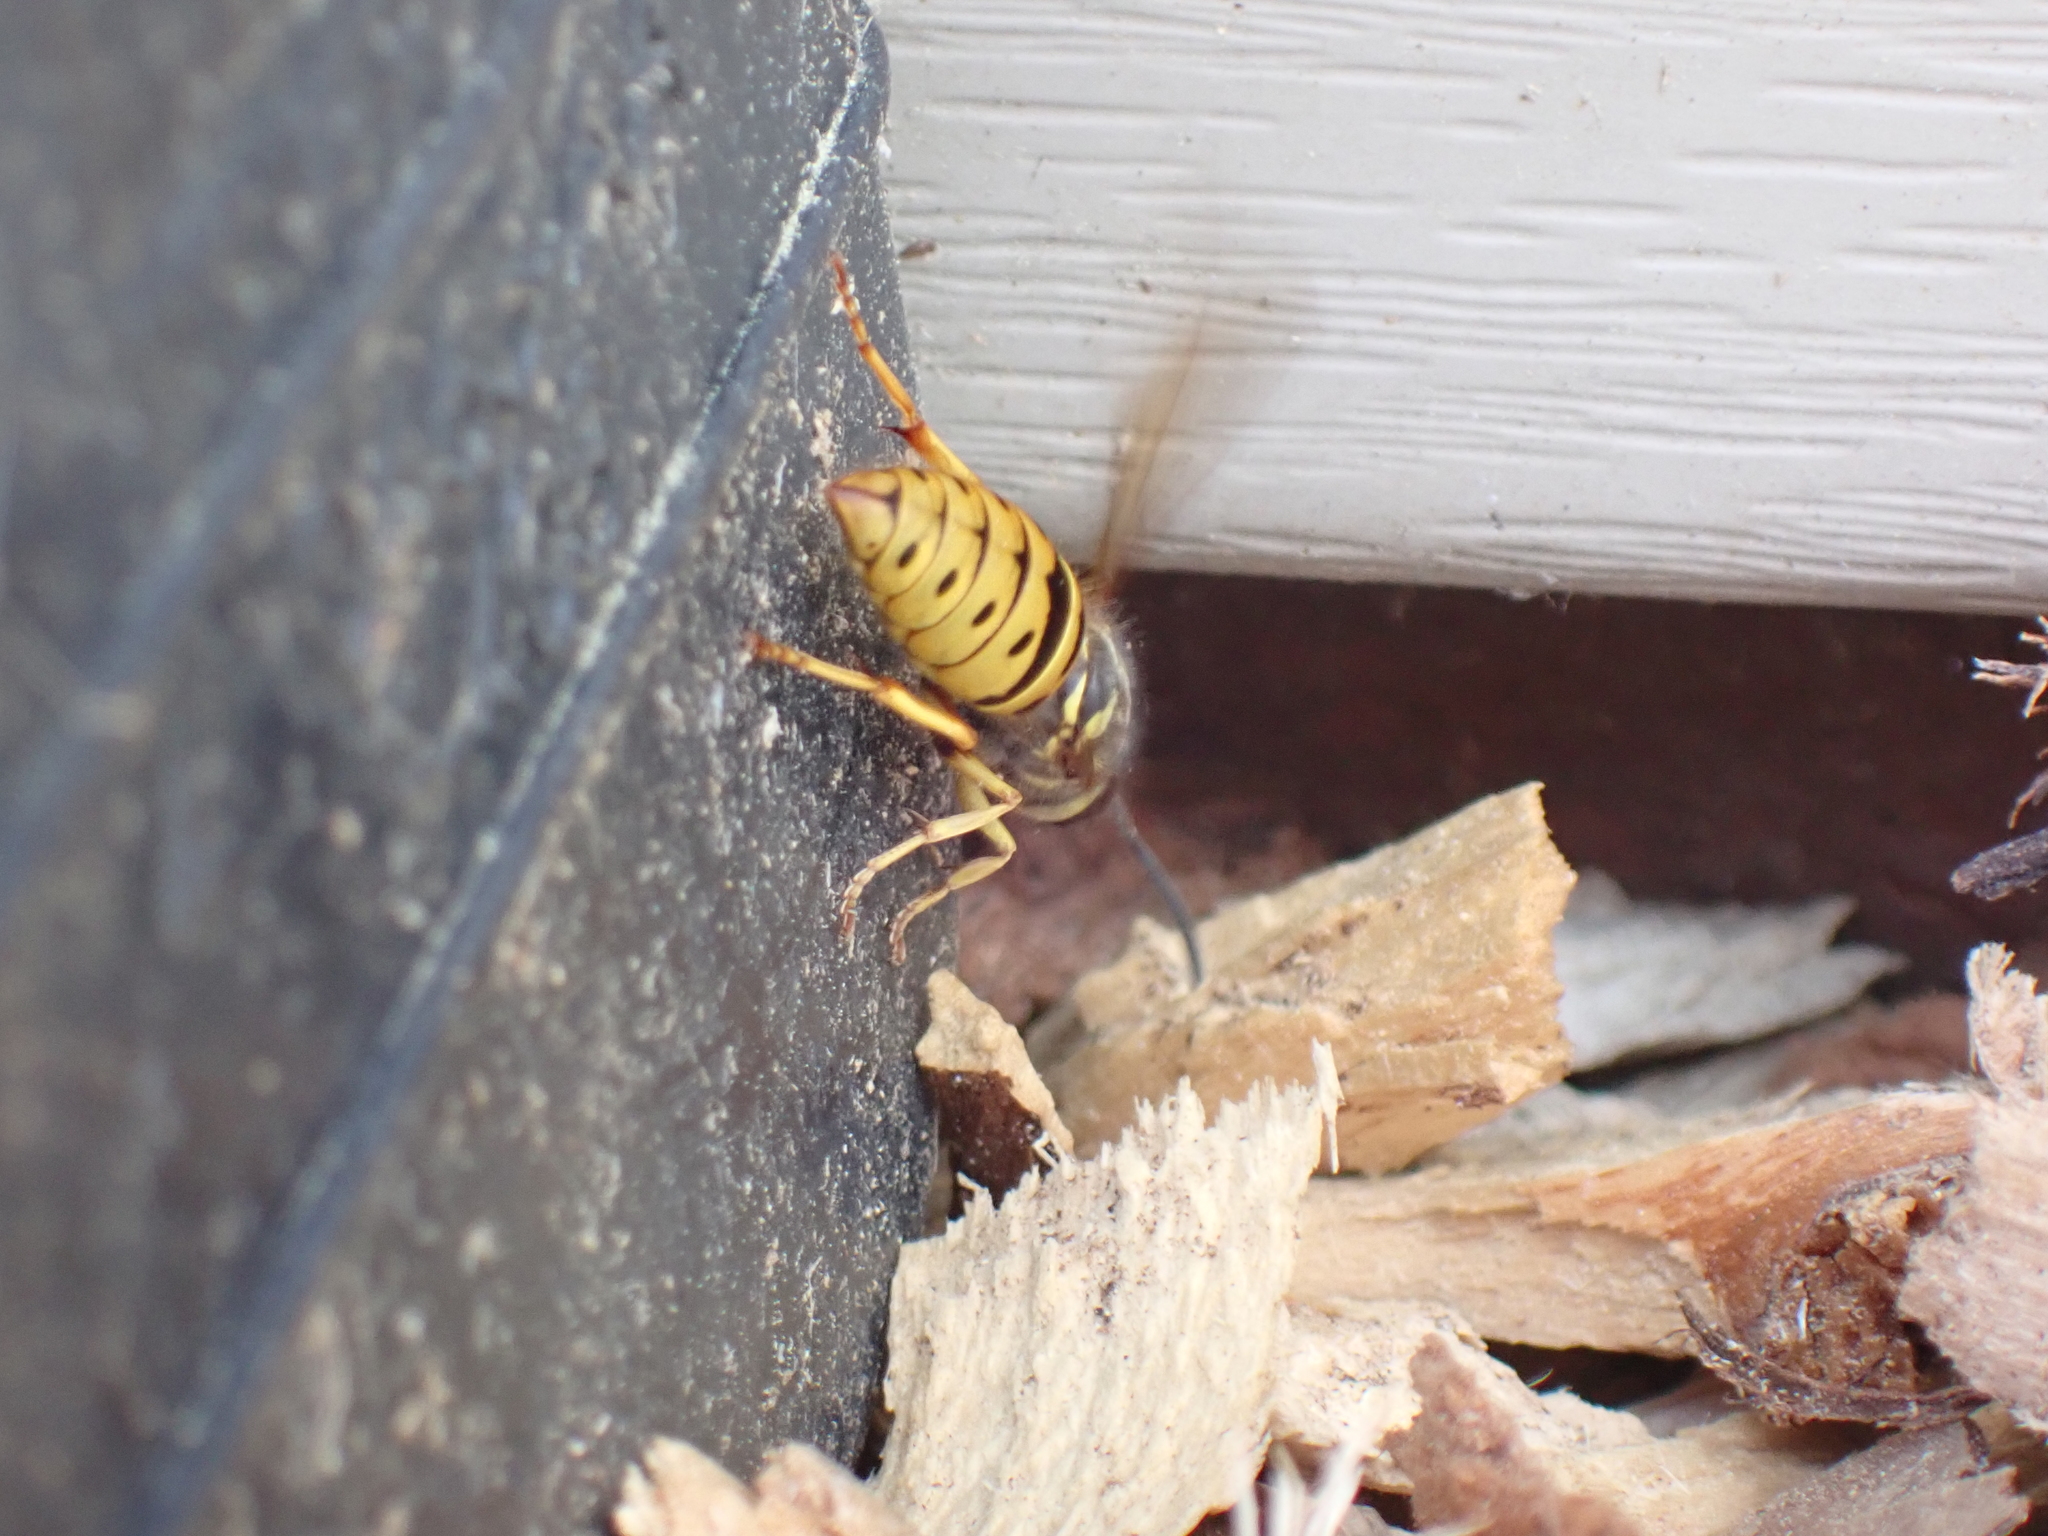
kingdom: Animalia
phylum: Arthropoda
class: Insecta
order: Hymenoptera
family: Vespidae
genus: Vespula
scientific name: Vespula maculifrons
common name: Eastern yellowjacket
